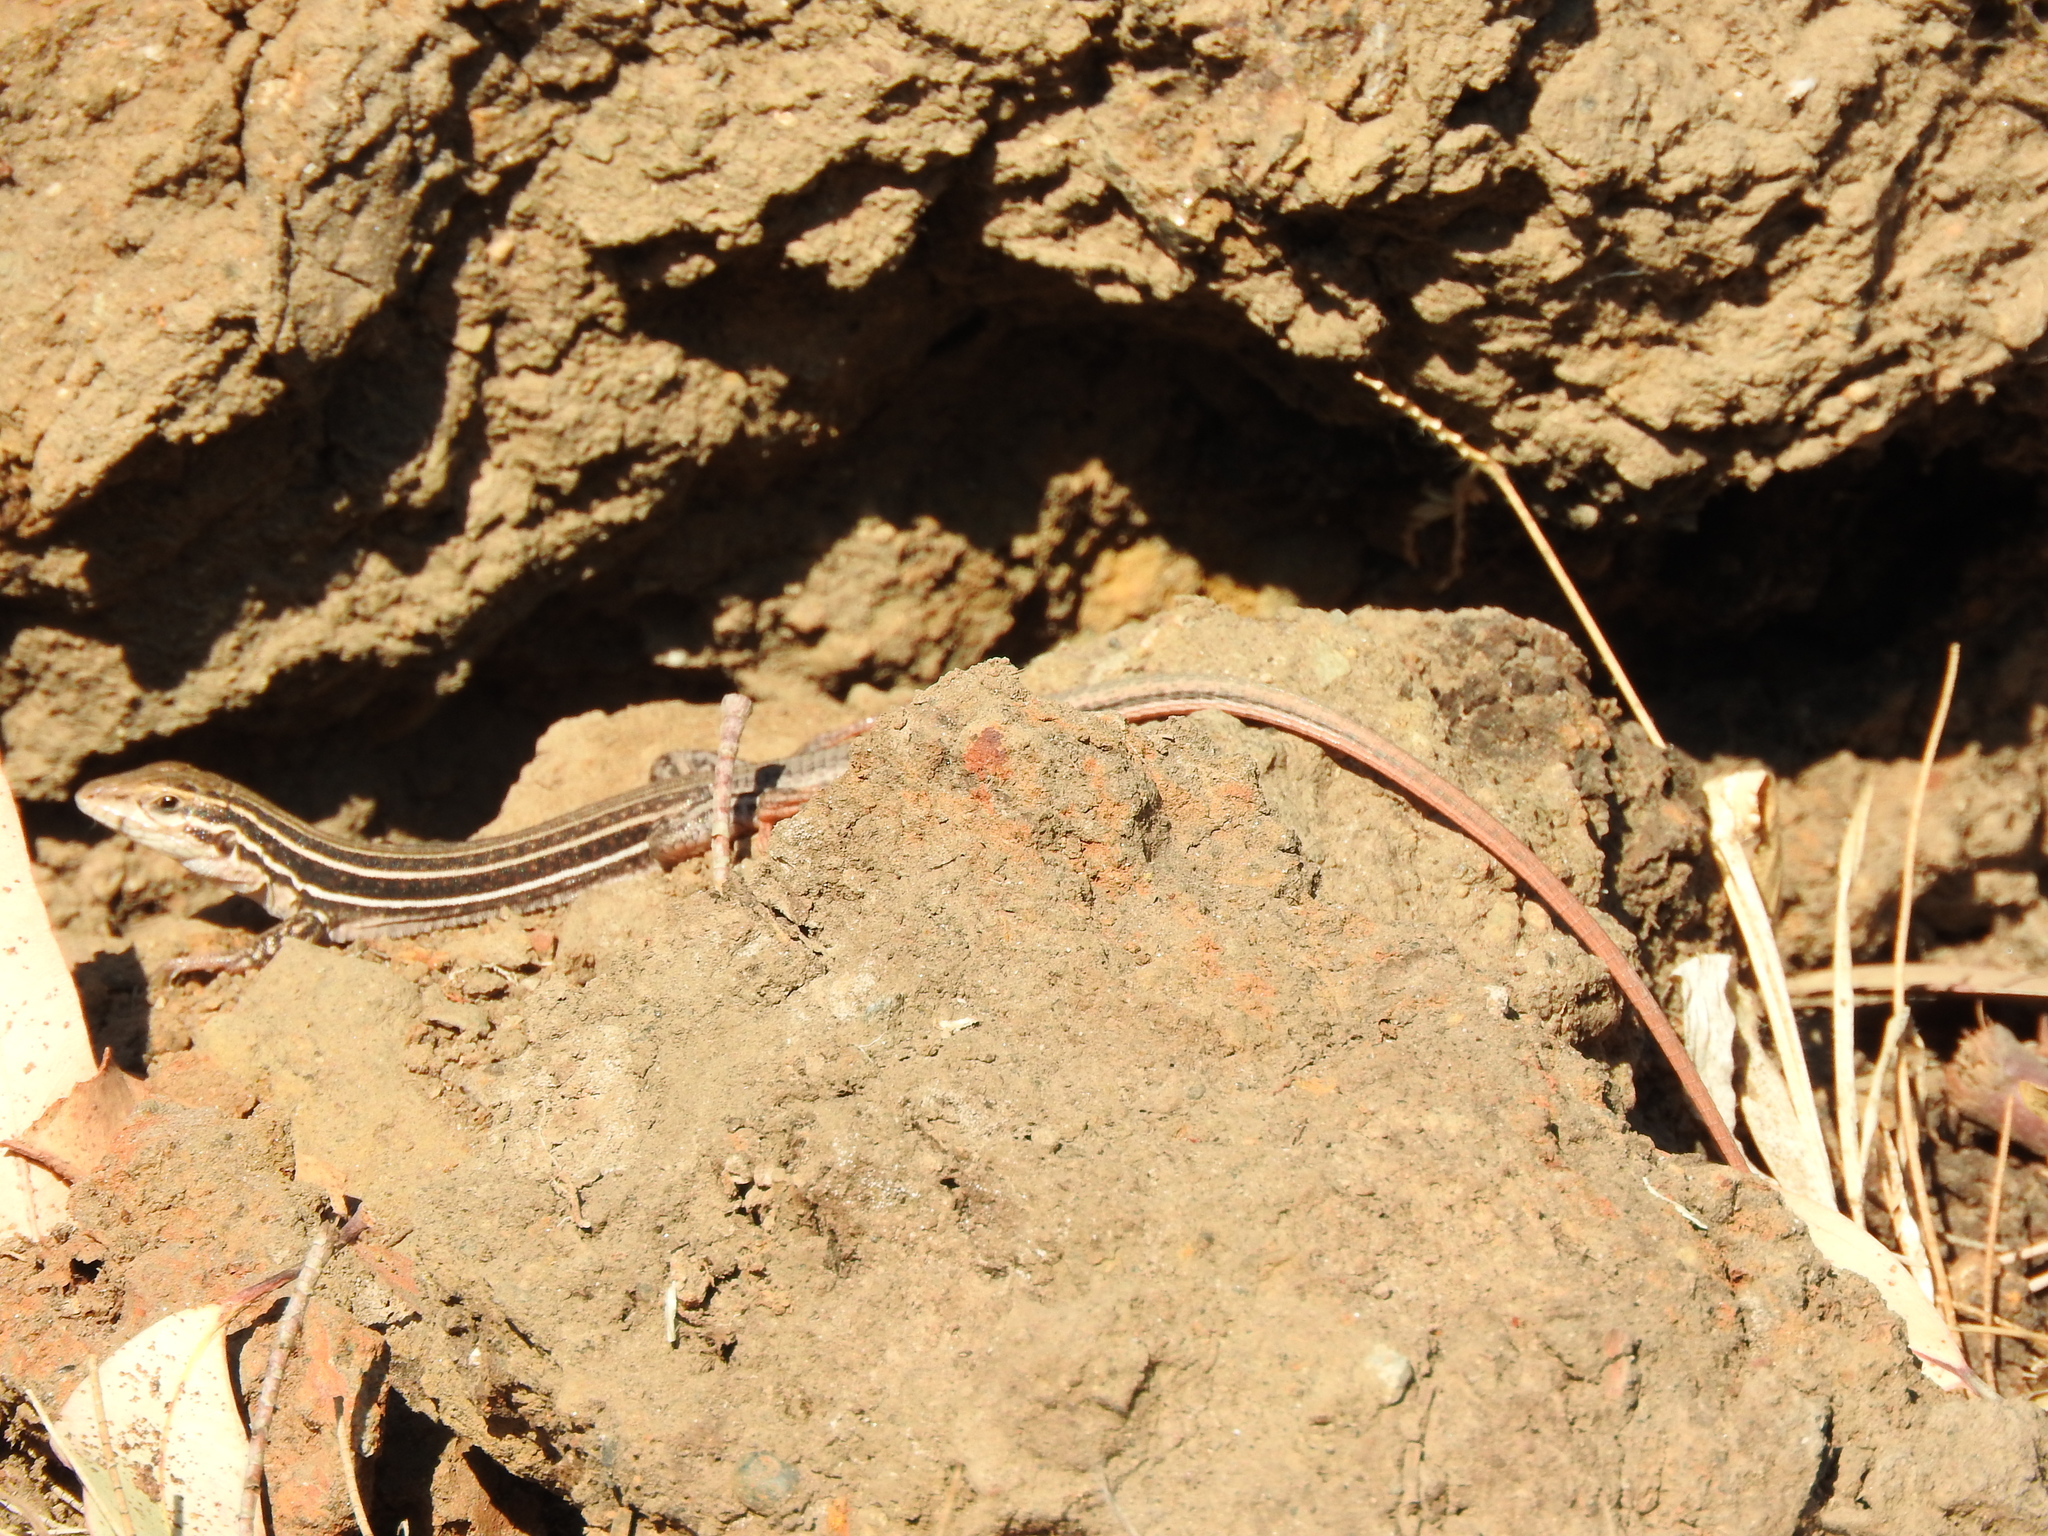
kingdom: Animalia
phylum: Chordata
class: Squamata
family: Teiidae
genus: Aspidoscelis
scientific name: Aspidoscelis gularis
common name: Eastern spotted whiptail
